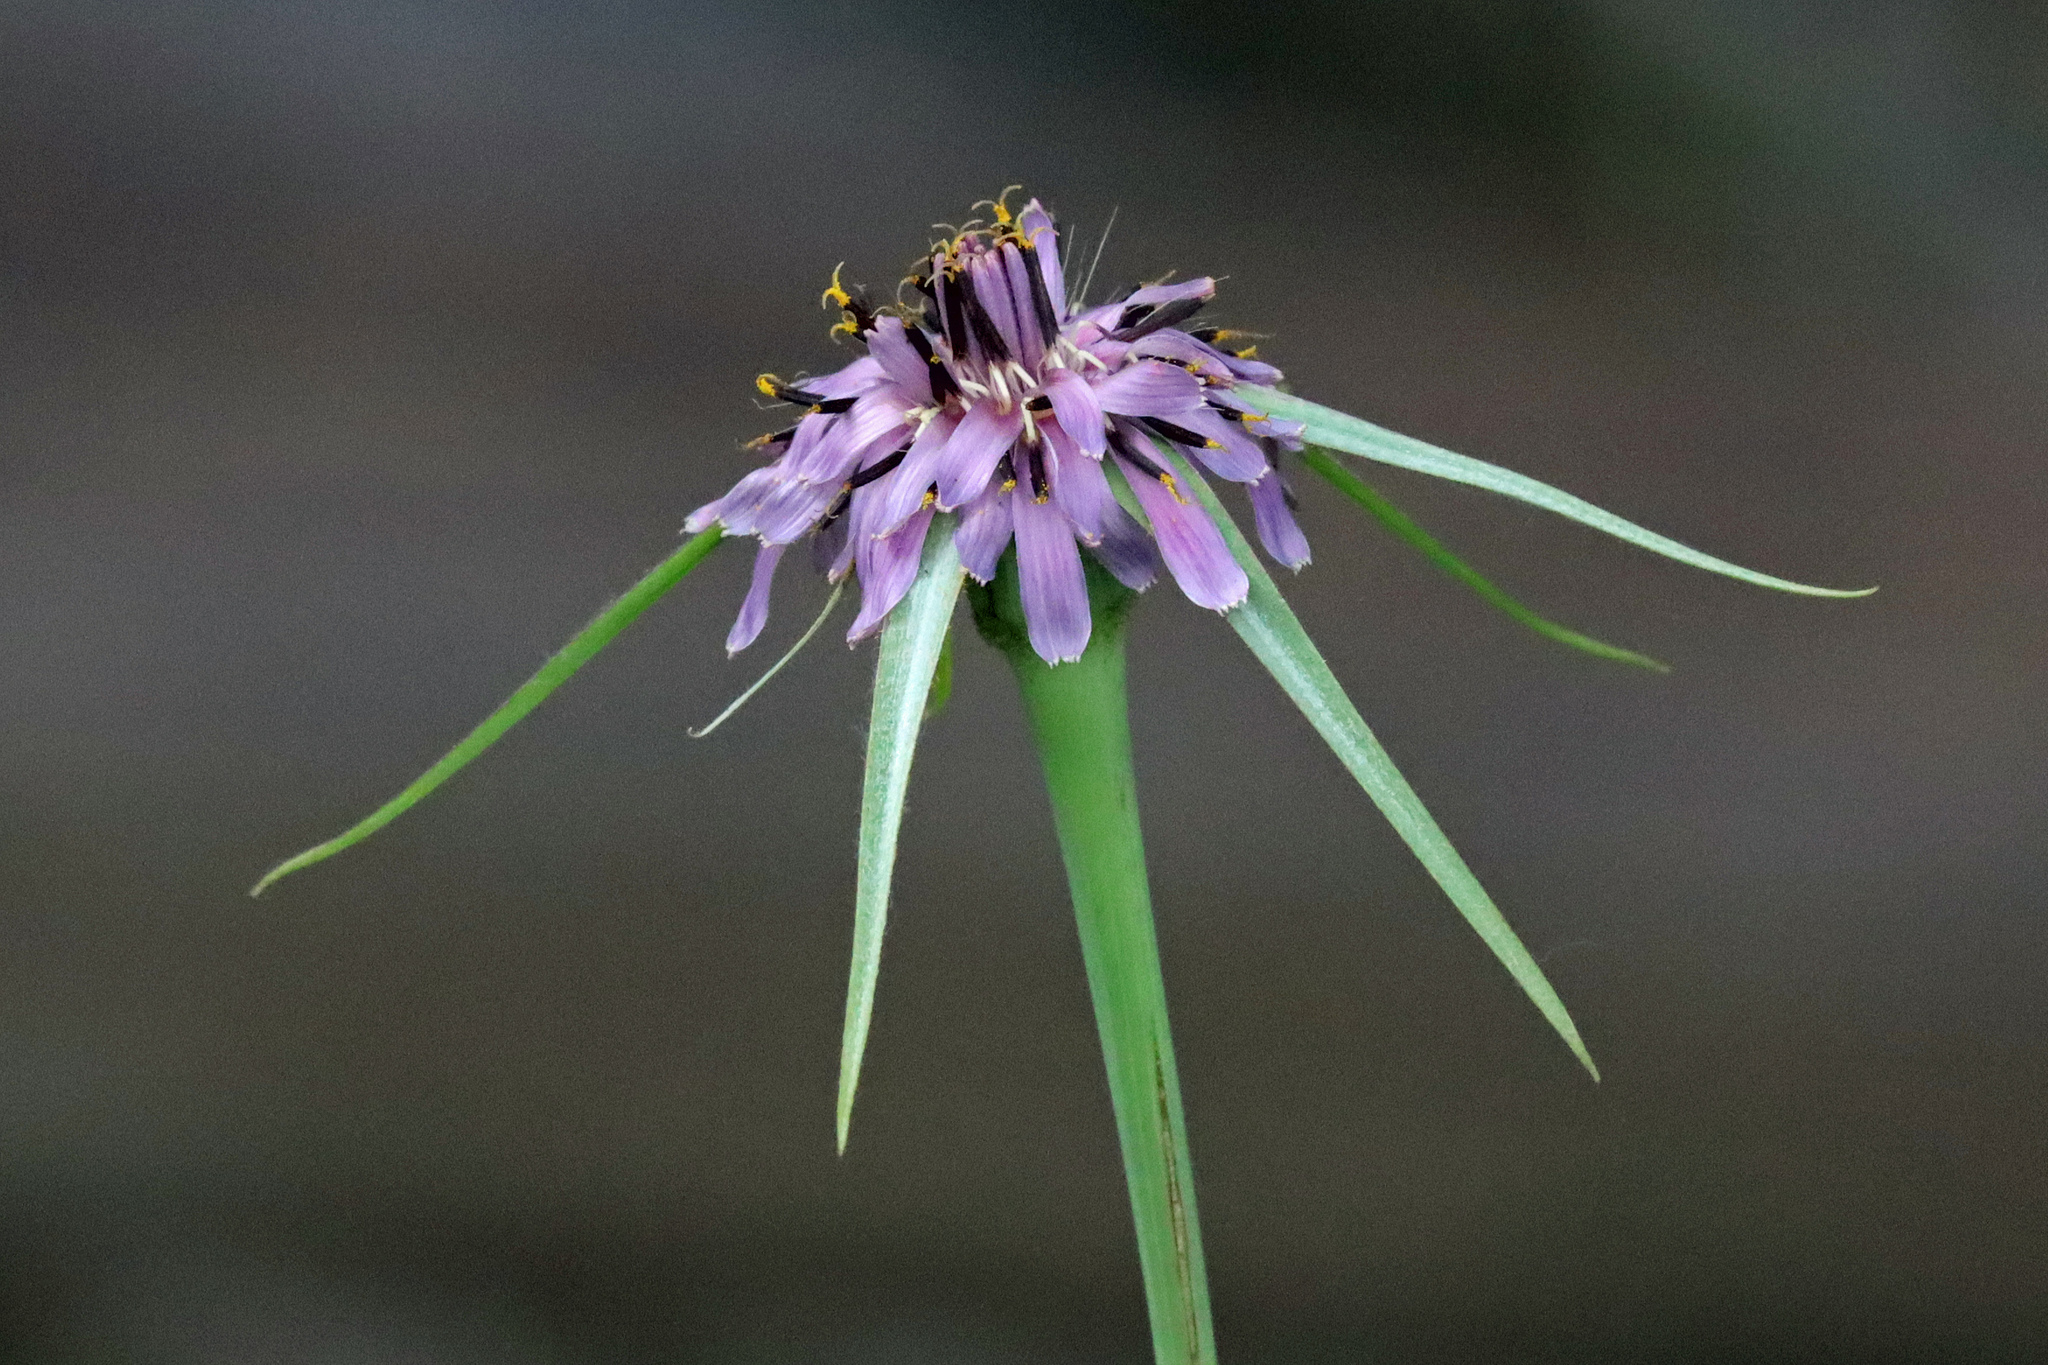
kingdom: Plantae
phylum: Tracheophyta
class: Magnoliopsida
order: Asterales
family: Asteraceae
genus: Tragopogon
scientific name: Tragopogon porrifolius
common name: Salsify
